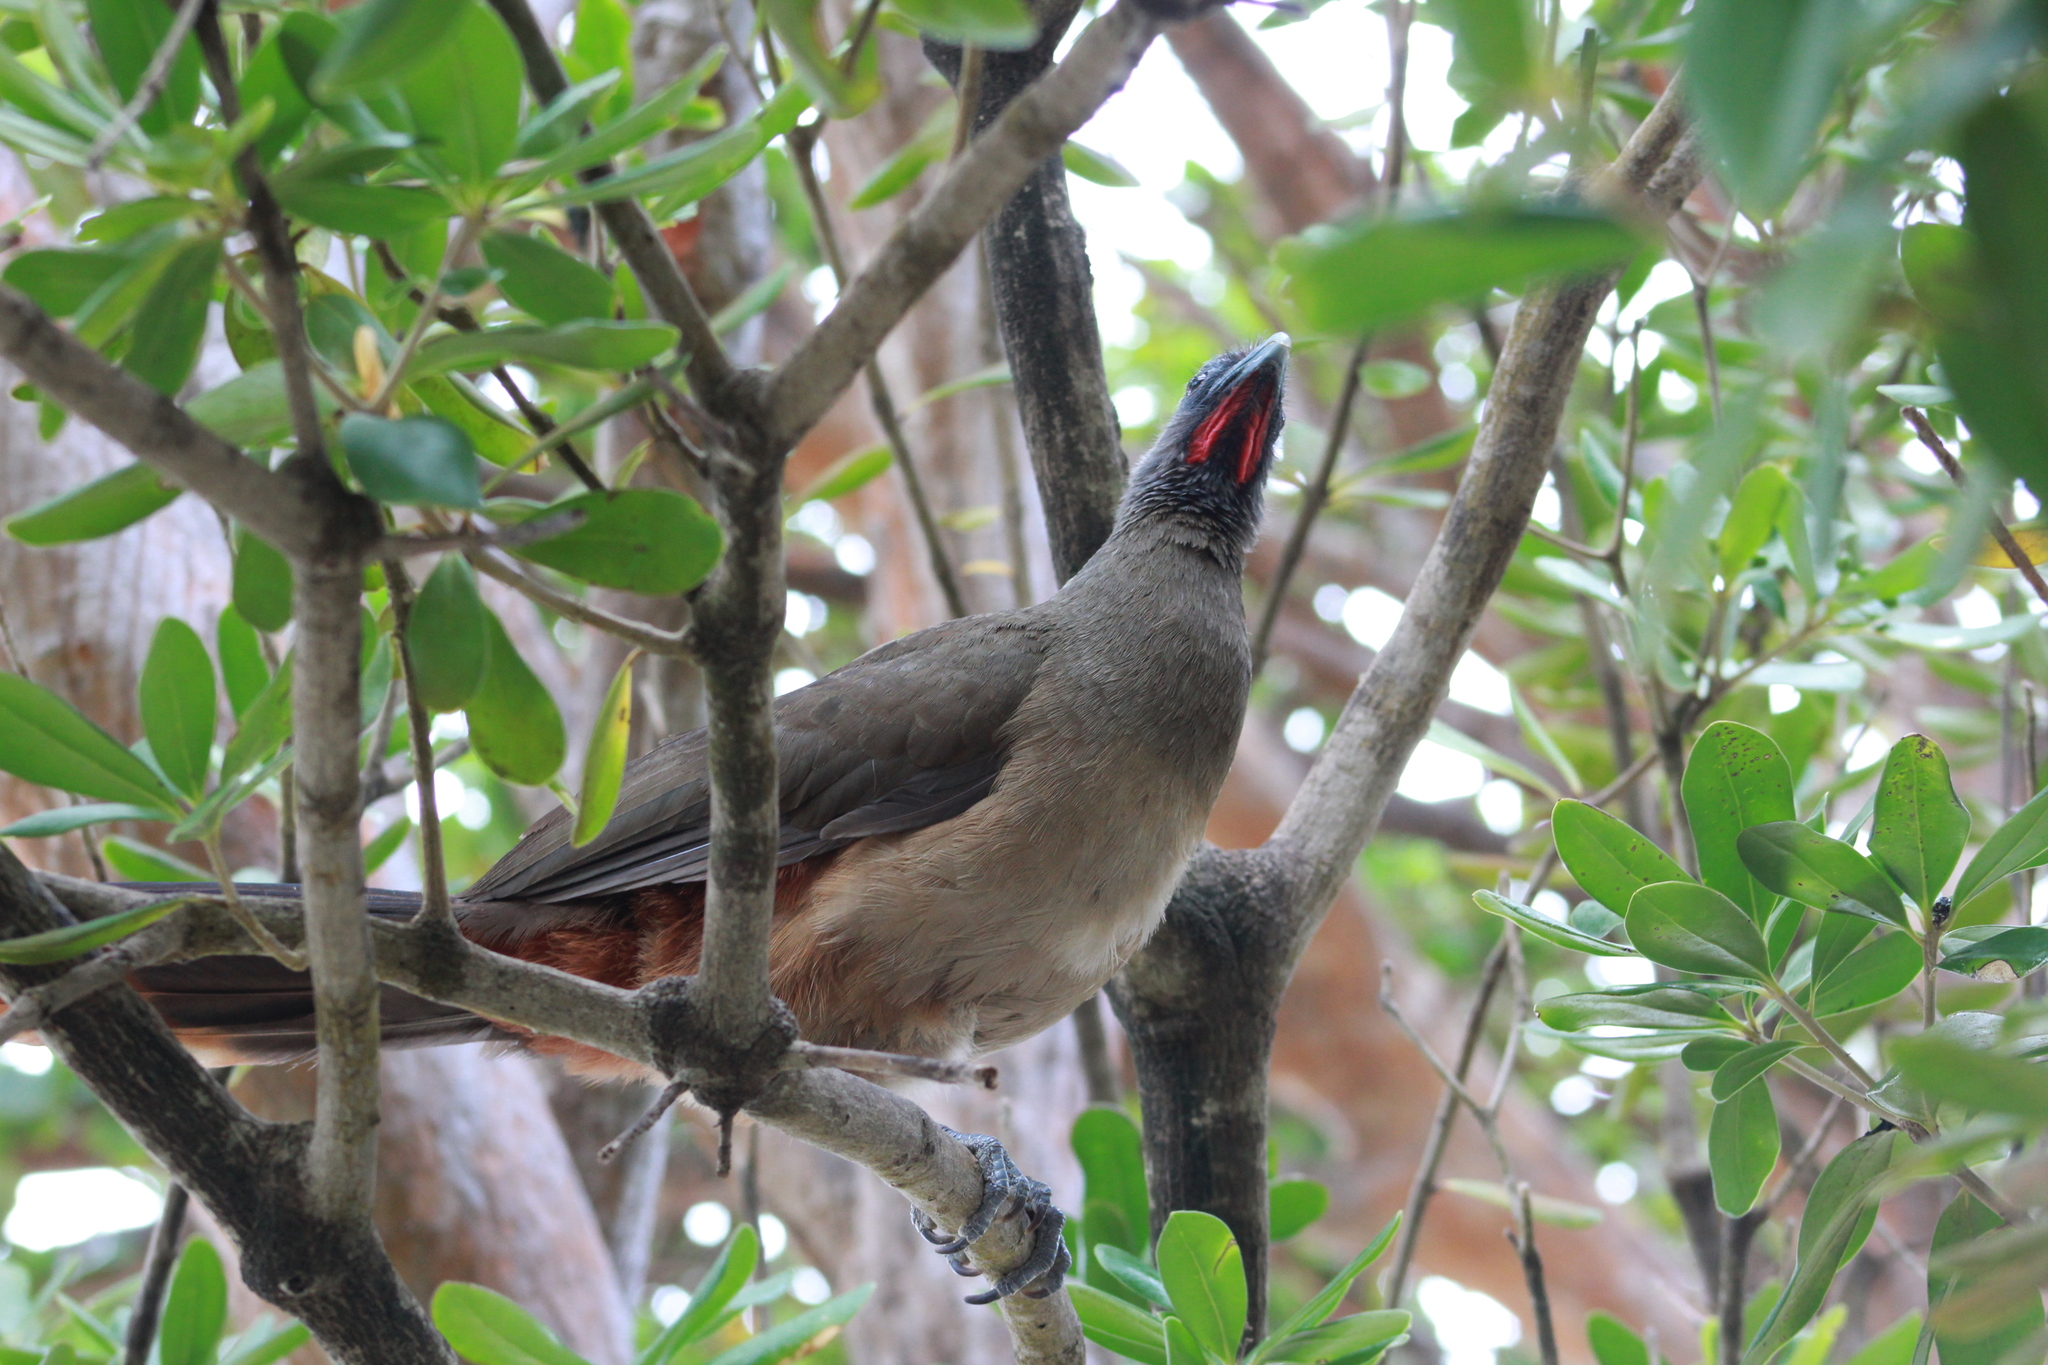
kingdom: Animalia
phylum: Chordata
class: Aves
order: Galliformes
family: Cracidae
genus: Ortalis
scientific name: Ortalis ruficauda
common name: Rufous-vented chachalaca
